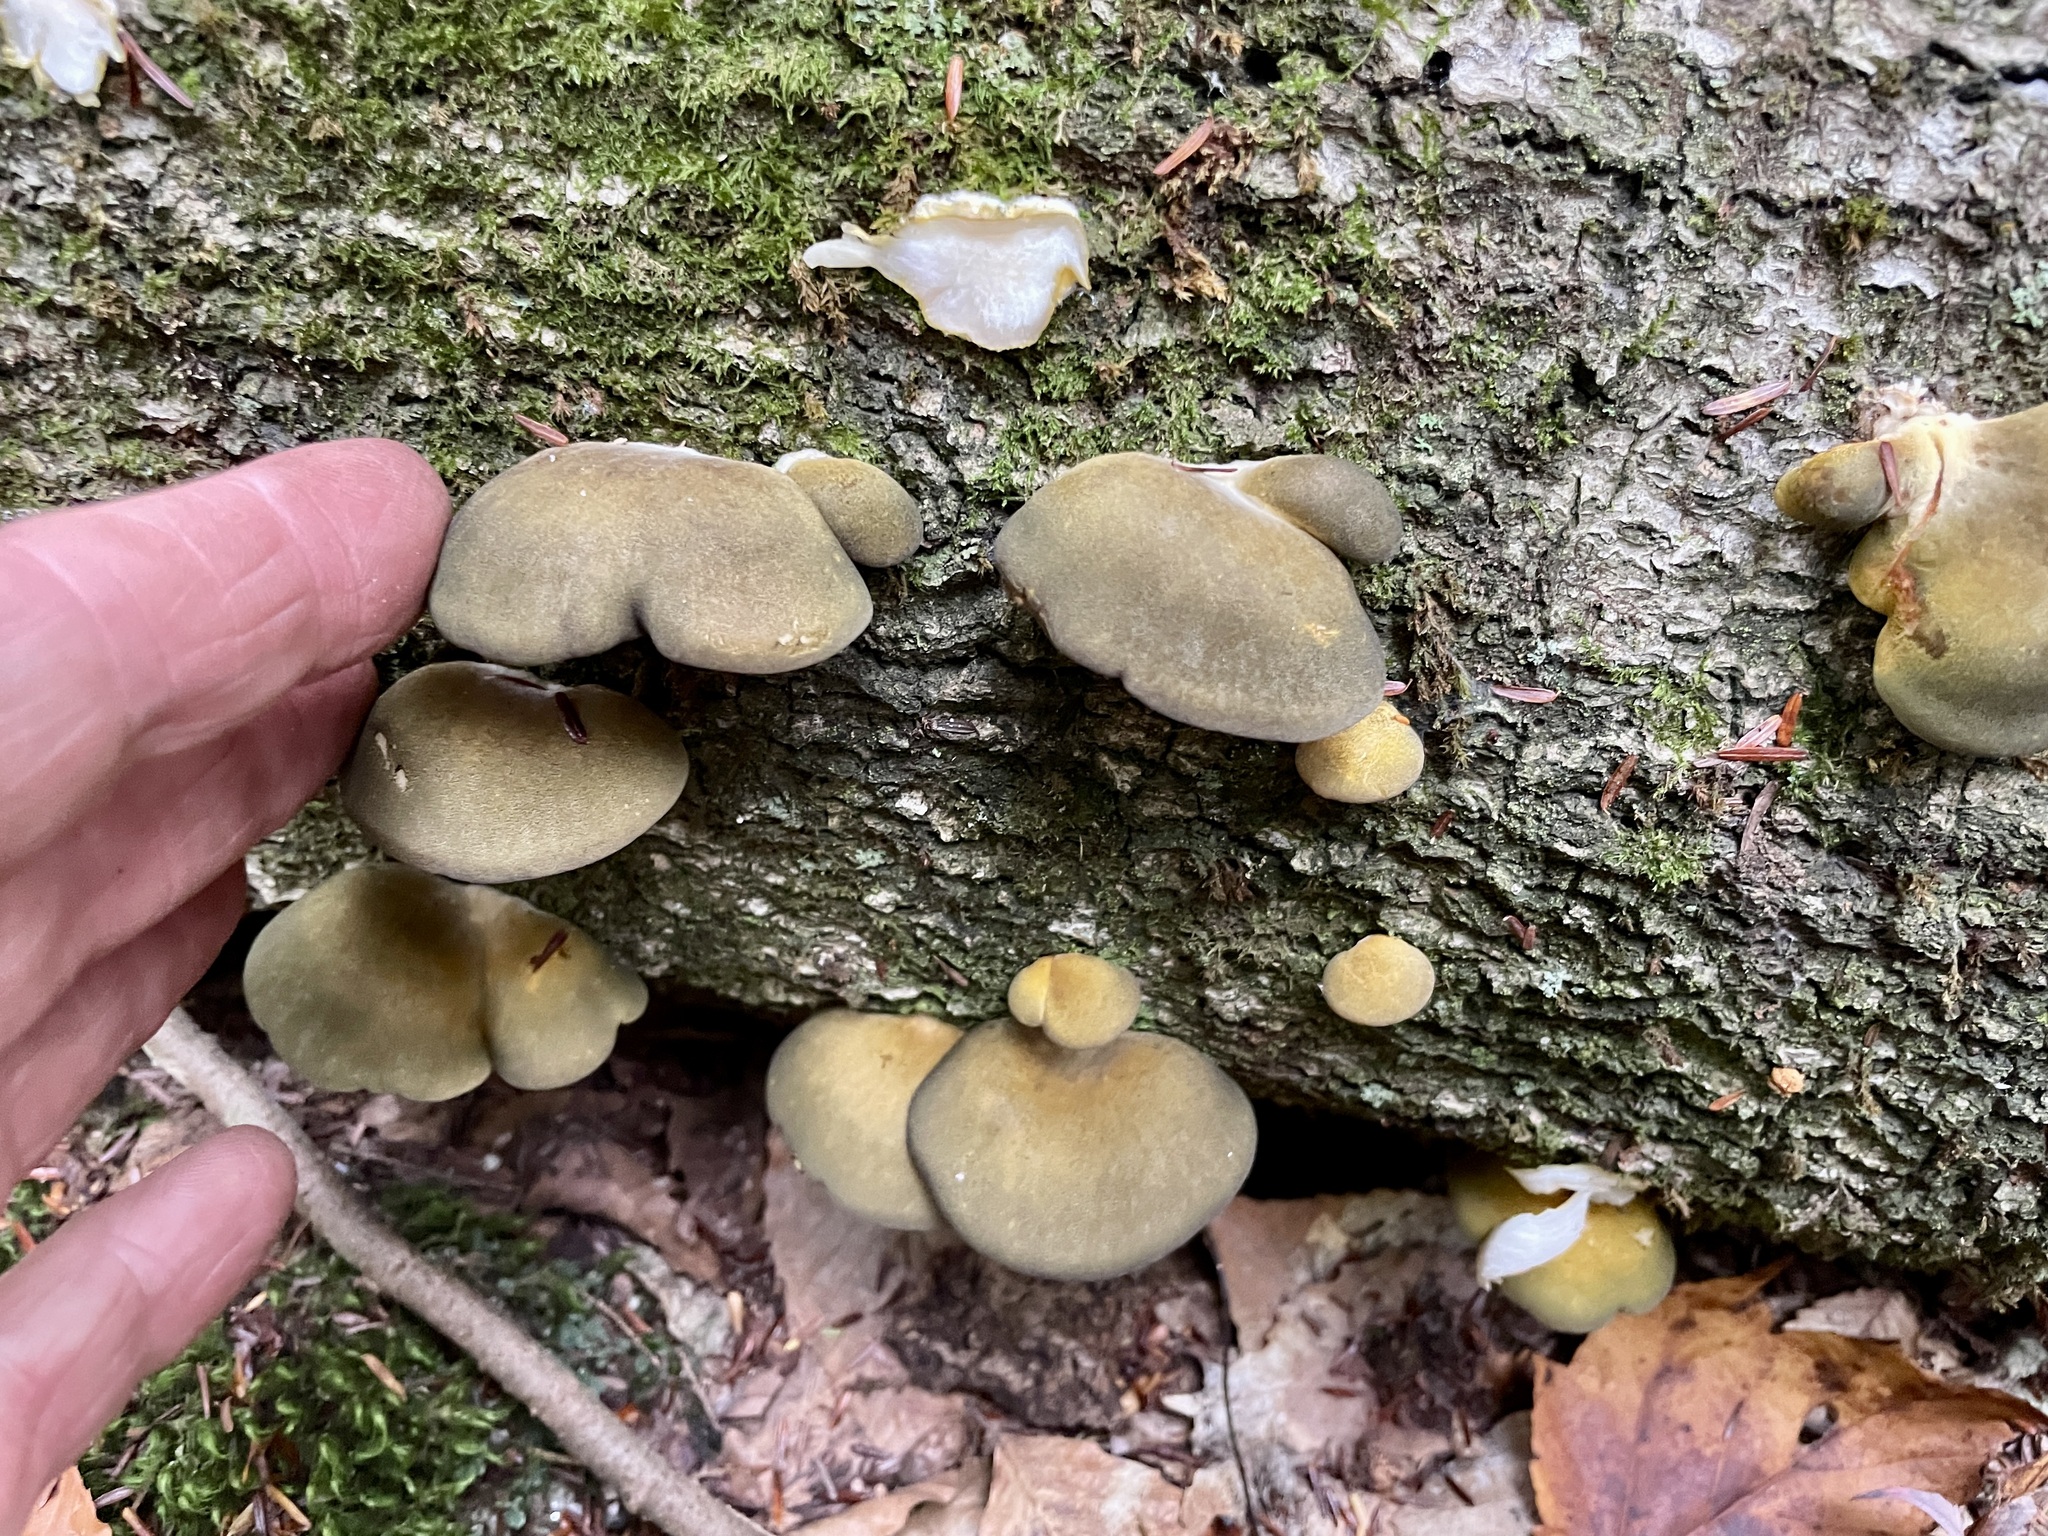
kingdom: Fungi
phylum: Basidiomycota
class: Agaricomycetes
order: Agaricales
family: Sarcomyxaceae
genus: Sarcomyxa
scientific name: Sarcomyxa serotina
